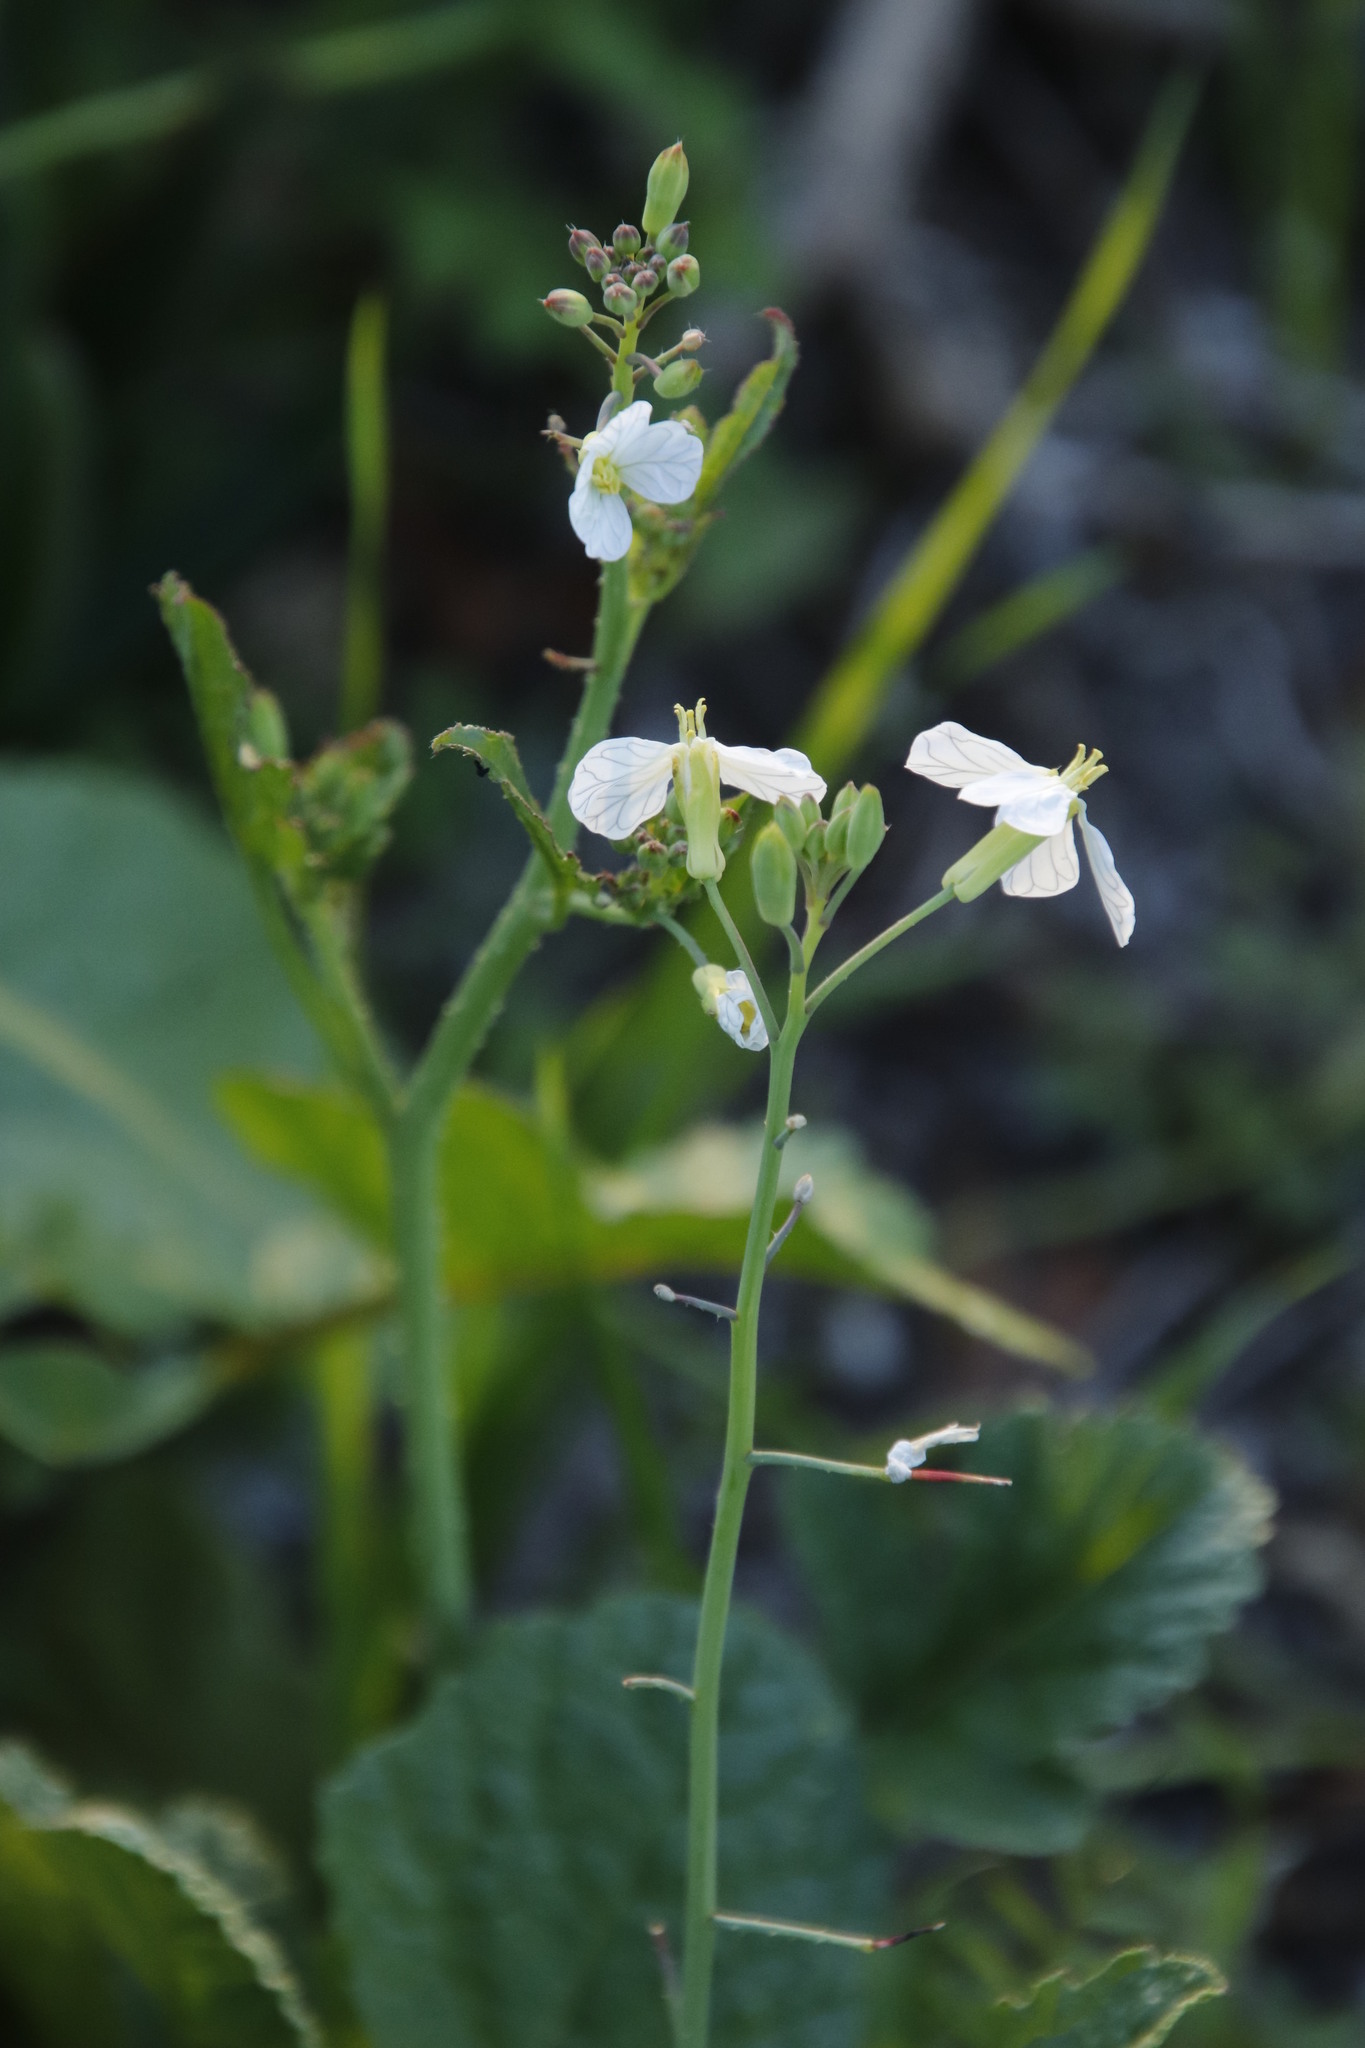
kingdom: Plantae
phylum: Tracheophyta
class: Magnoliopsida
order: Brassicales
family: Brassicaceae
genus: Raphanus
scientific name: Raphanus raphanistrum
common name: Wild radish
